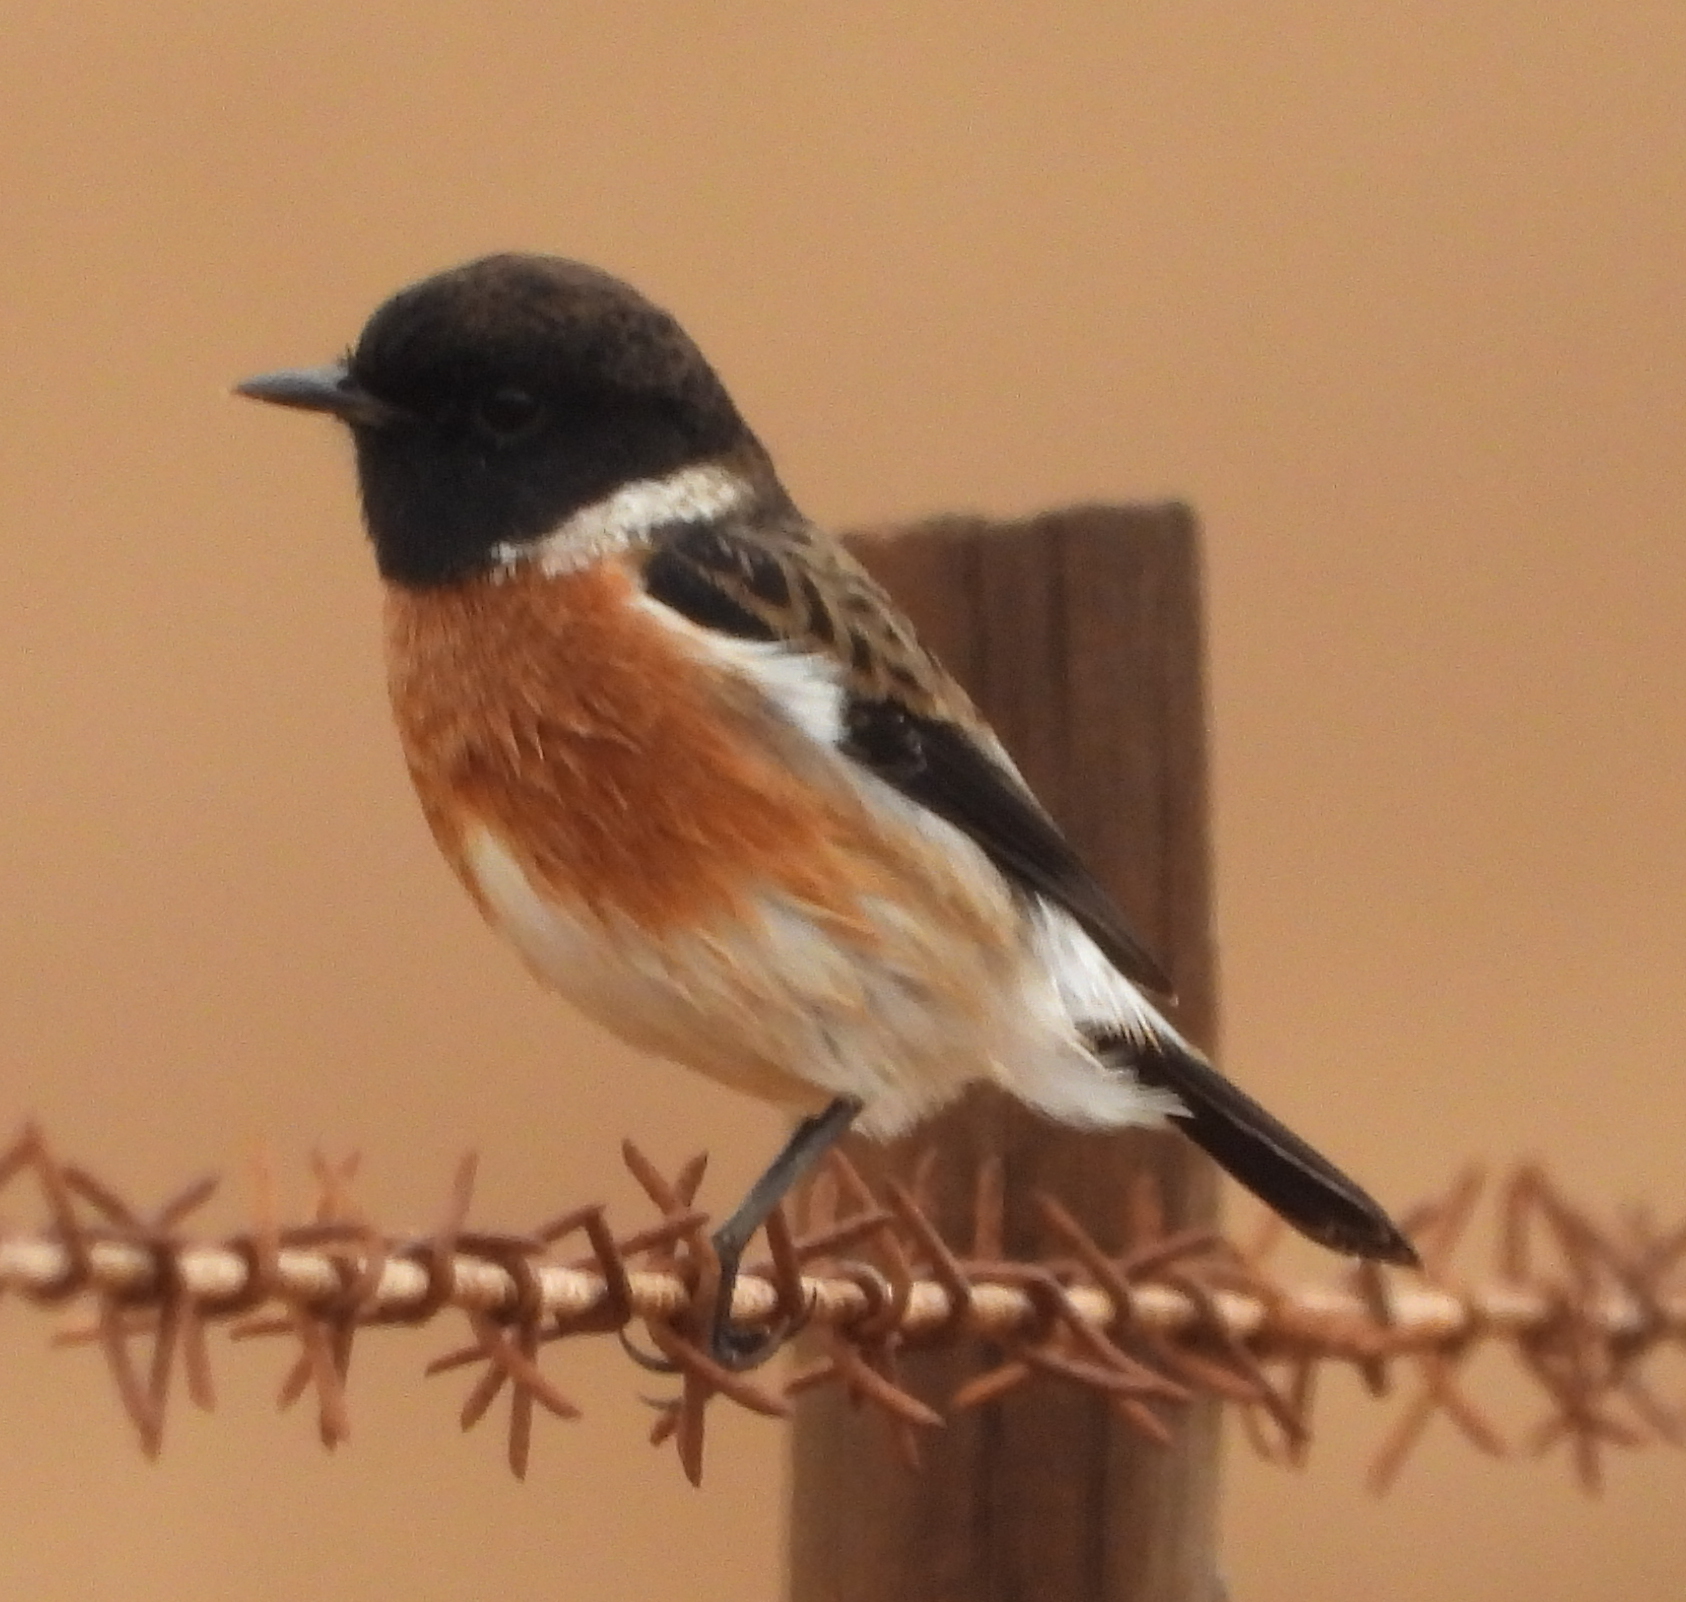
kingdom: Animalia
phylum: Chordata
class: Aves
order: Passeriformes
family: Muscicapidae
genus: Saxicola
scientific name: Saxicola torquatus
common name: African stonechat
